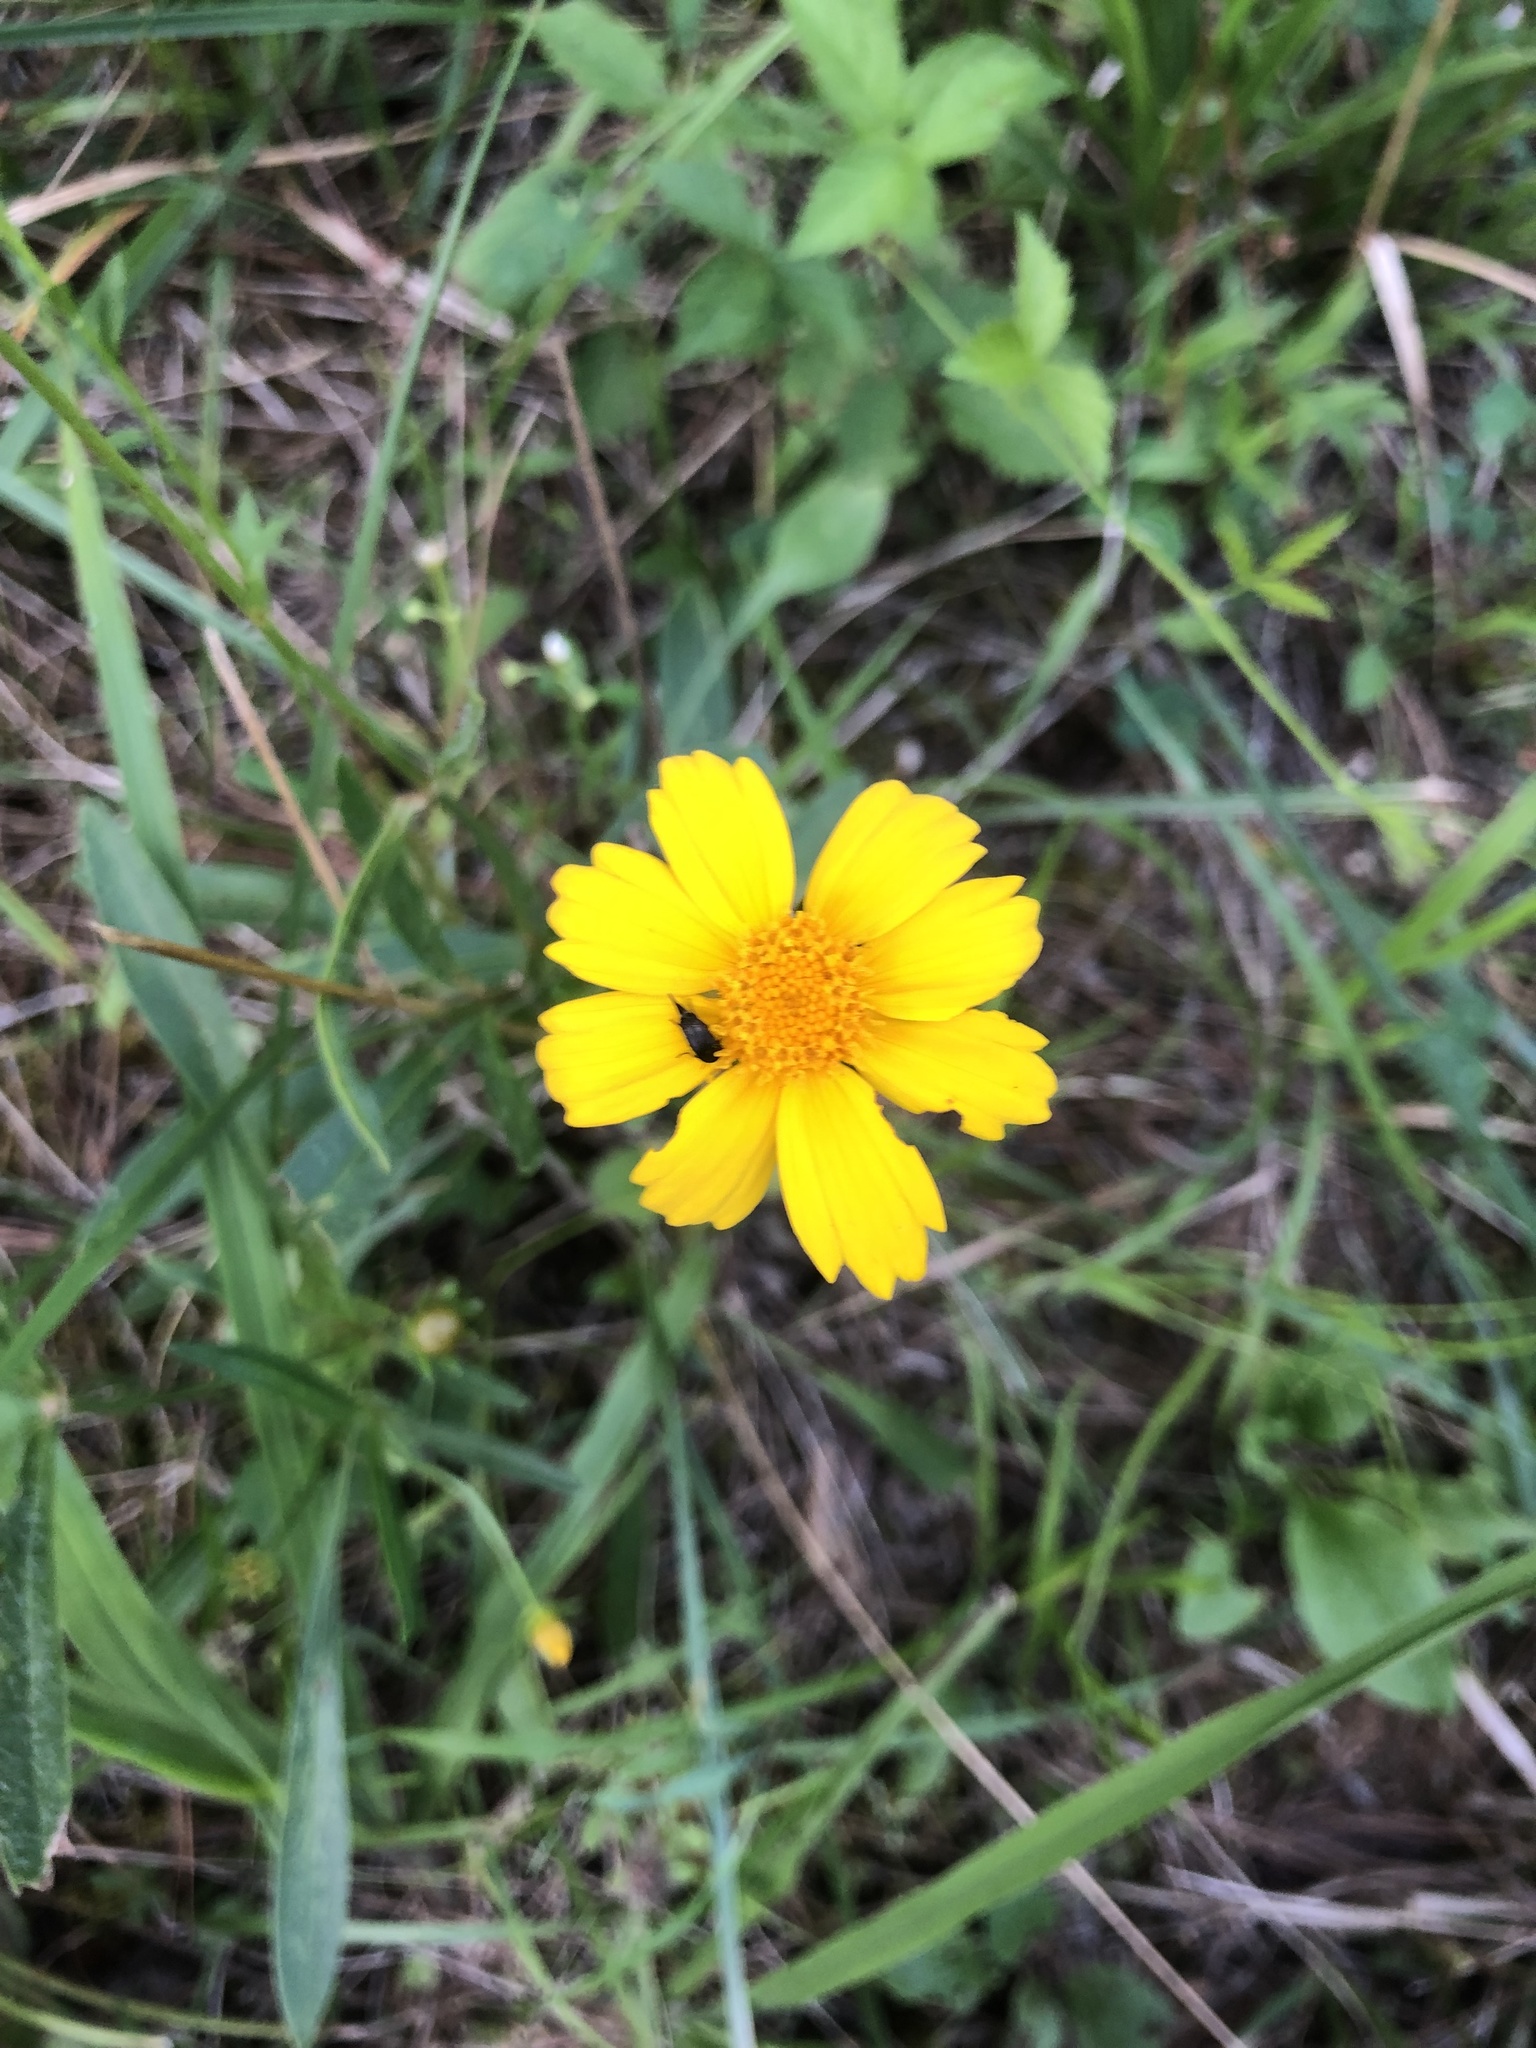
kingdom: Plantae
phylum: Tracheophyta
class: Magnoliopsida
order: Asterales
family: Asteraceae
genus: Coreopsis
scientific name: Coreopsis lanceolata
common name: Garden coreopsis
